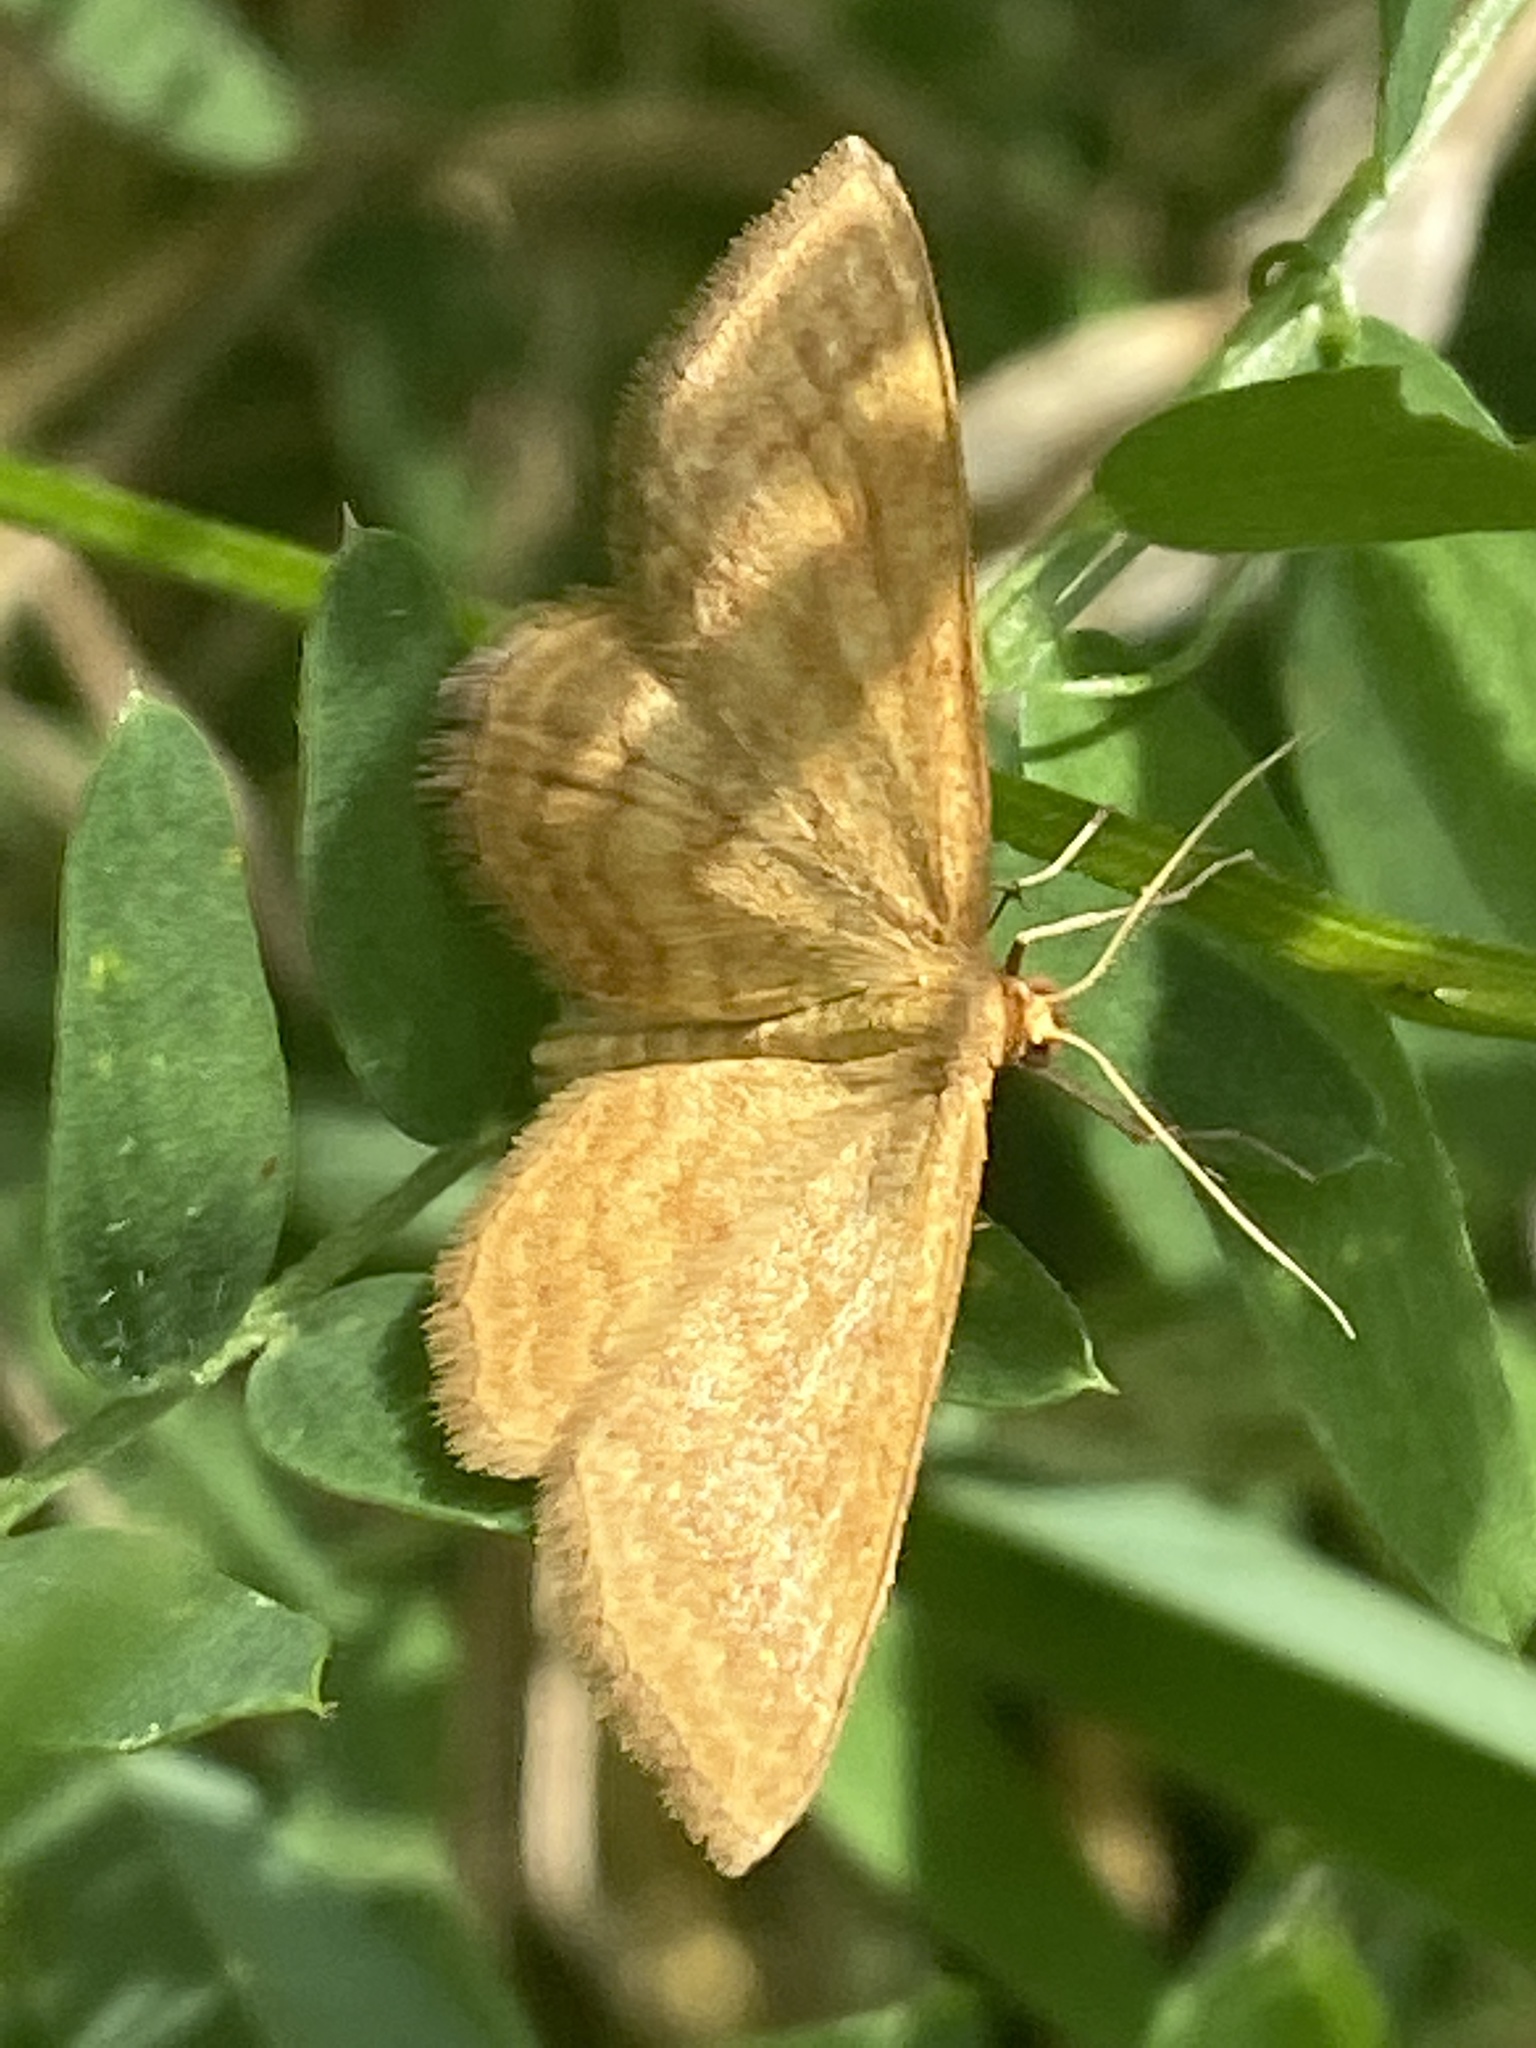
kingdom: Animalia
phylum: Arthropoda
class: Insecta
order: Lepidoptera
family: Geometridae
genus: Idaea
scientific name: Idaea ochrata
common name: Bright wave
